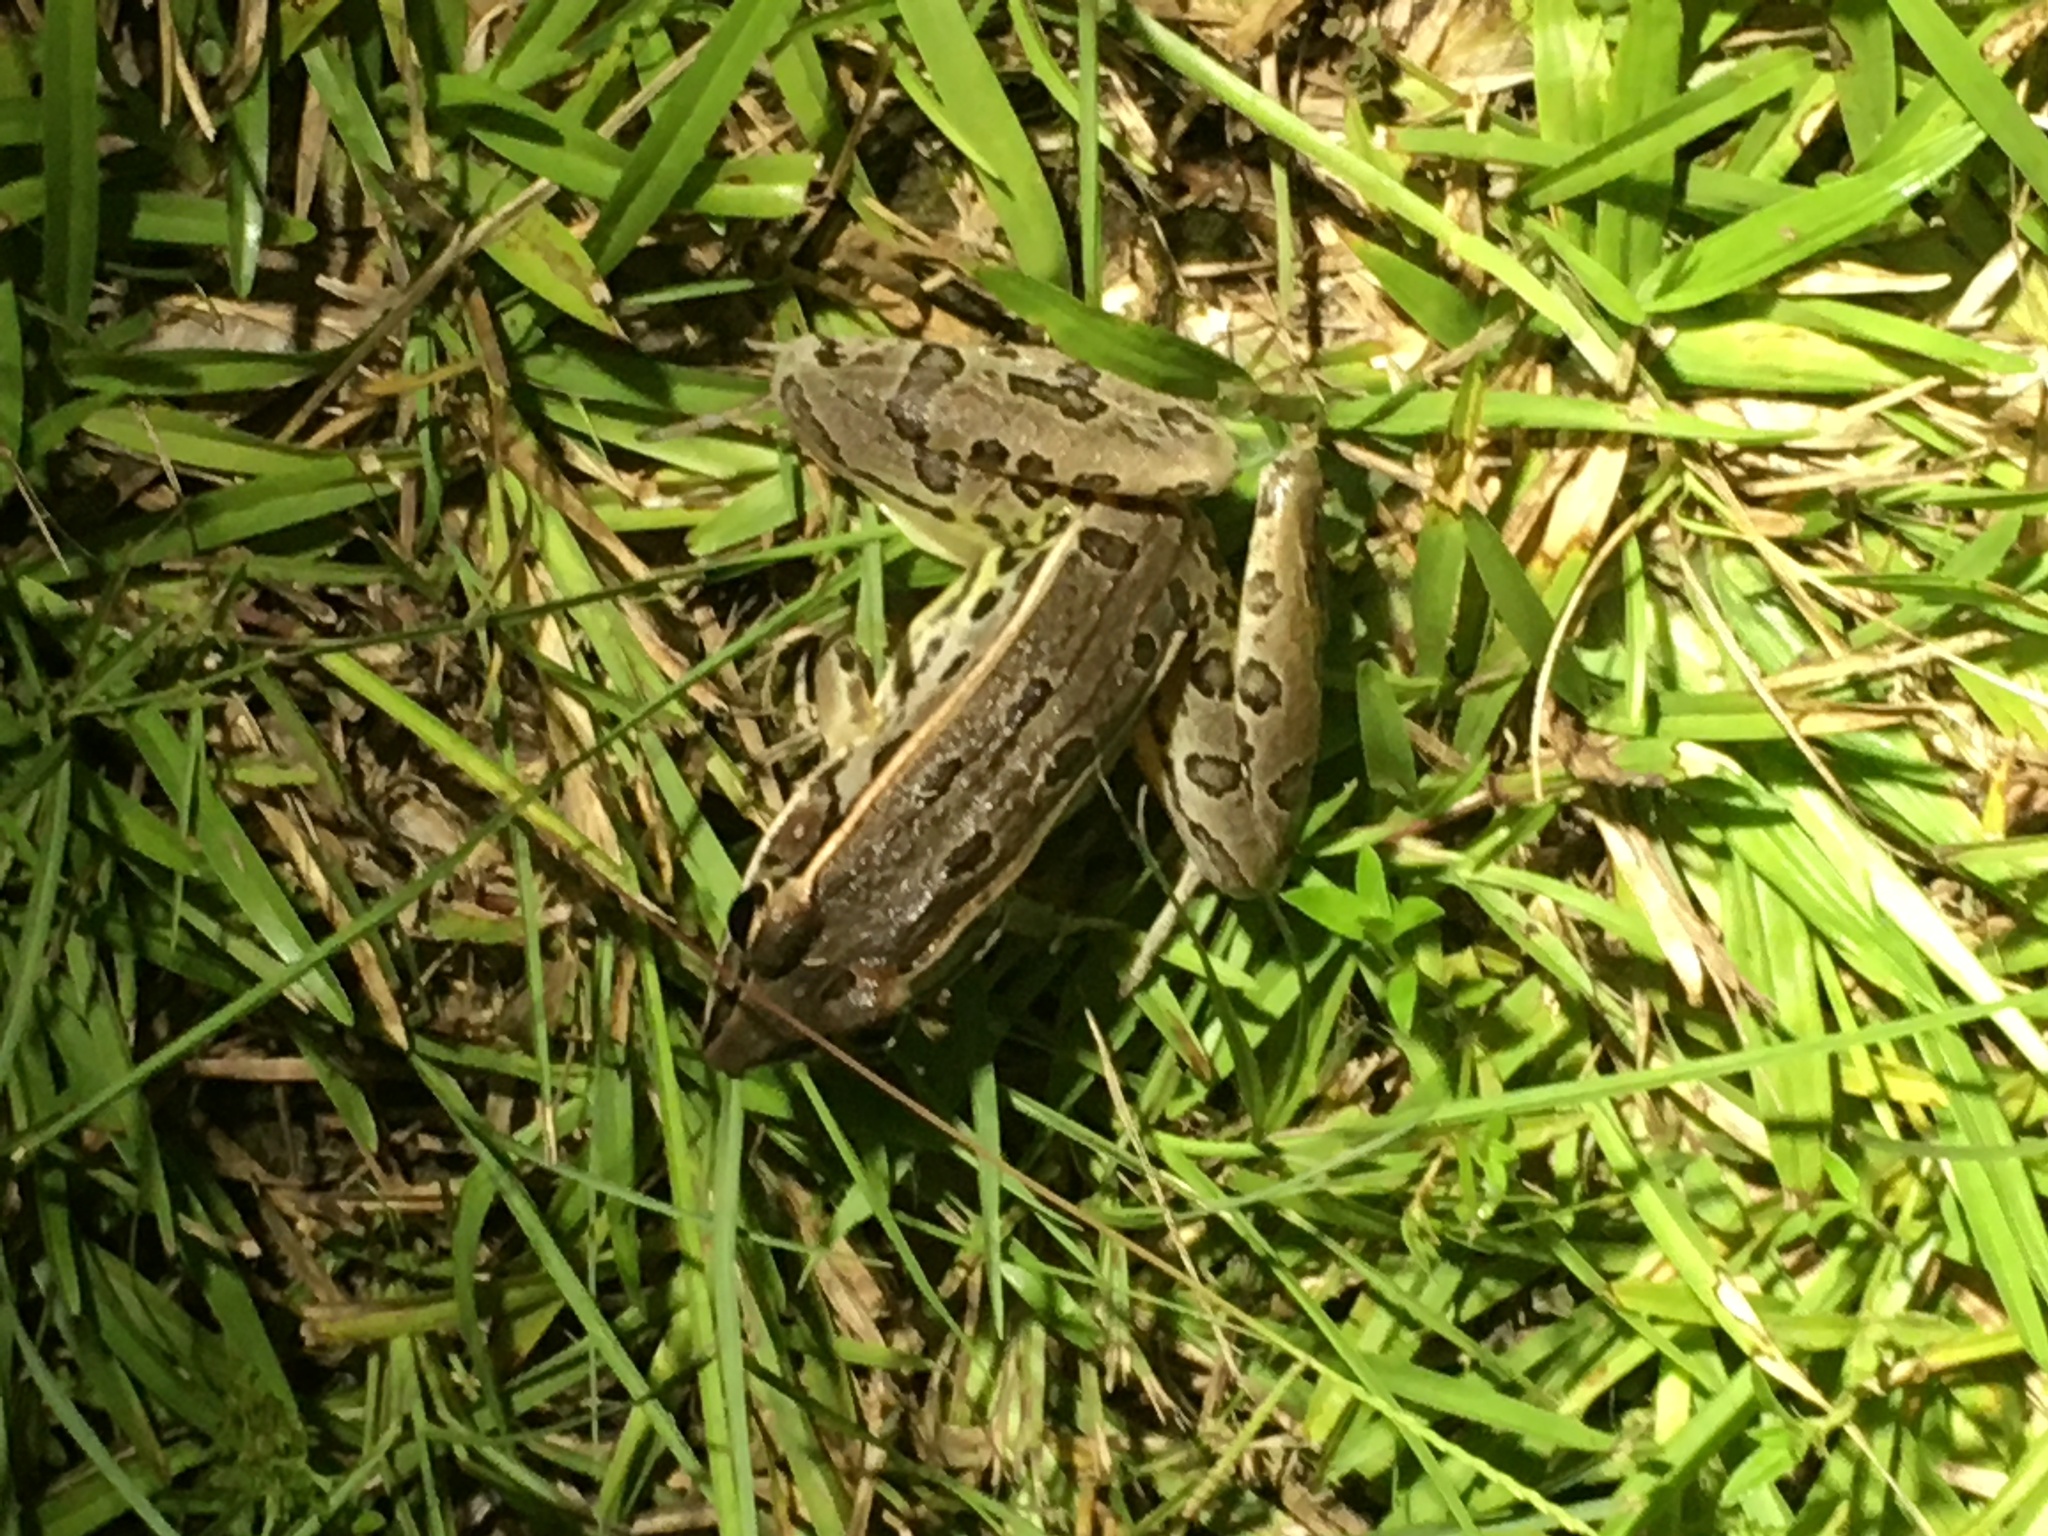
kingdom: Animalia
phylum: Chordata
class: Amphibia
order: Anura
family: Ranidae
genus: Lithobates
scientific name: Lithobates sphenocephalus
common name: Southern leopard frog
